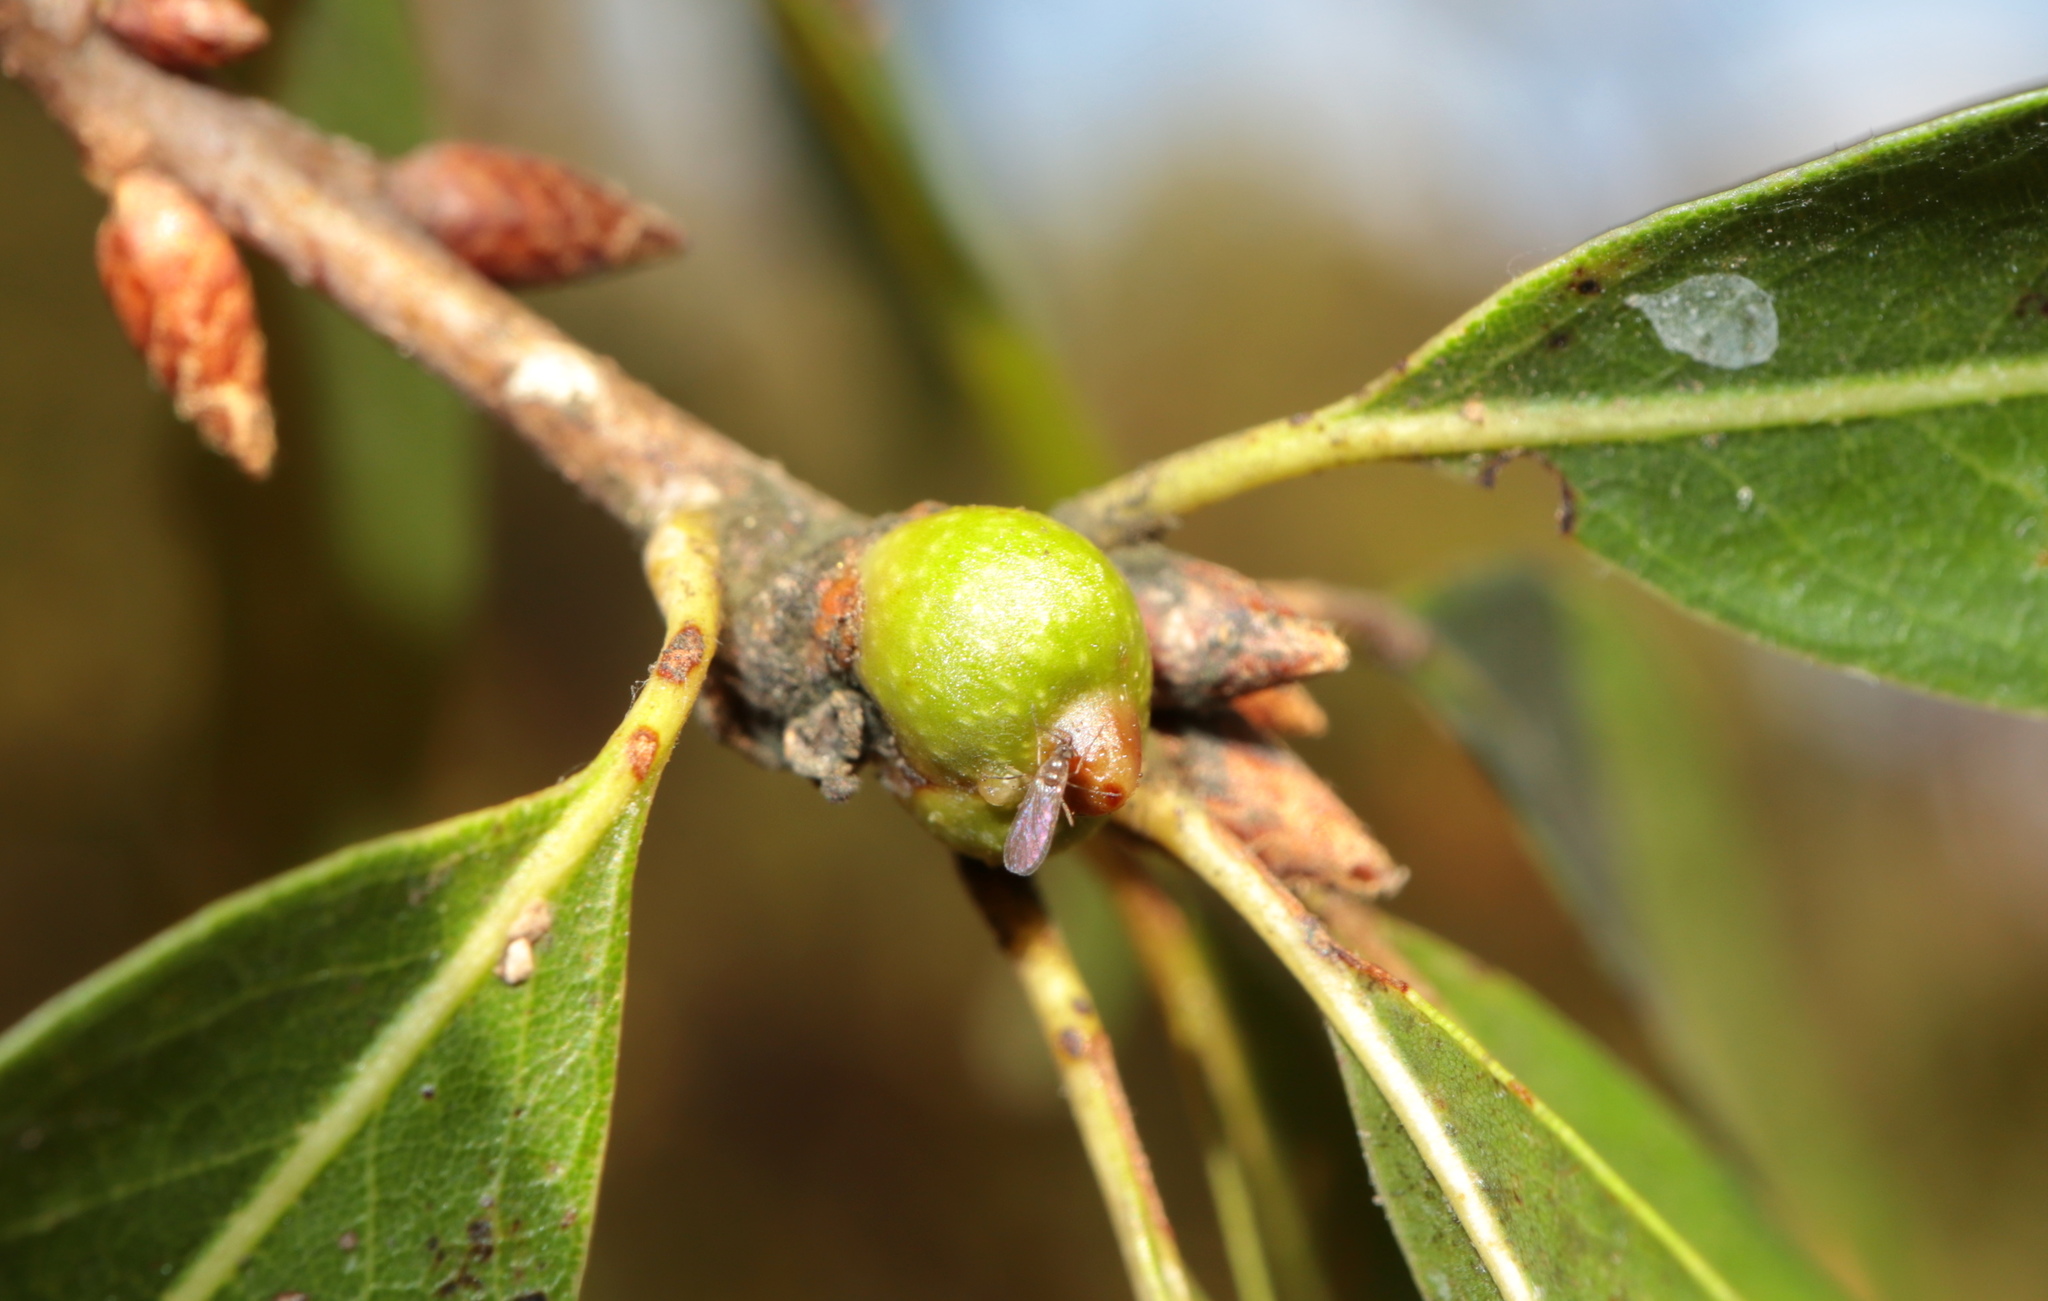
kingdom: Animalia
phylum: Arthropoda
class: Insecta
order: Hymenoptera
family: Cynipidae
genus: Callirhytis
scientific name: Callirhytis
